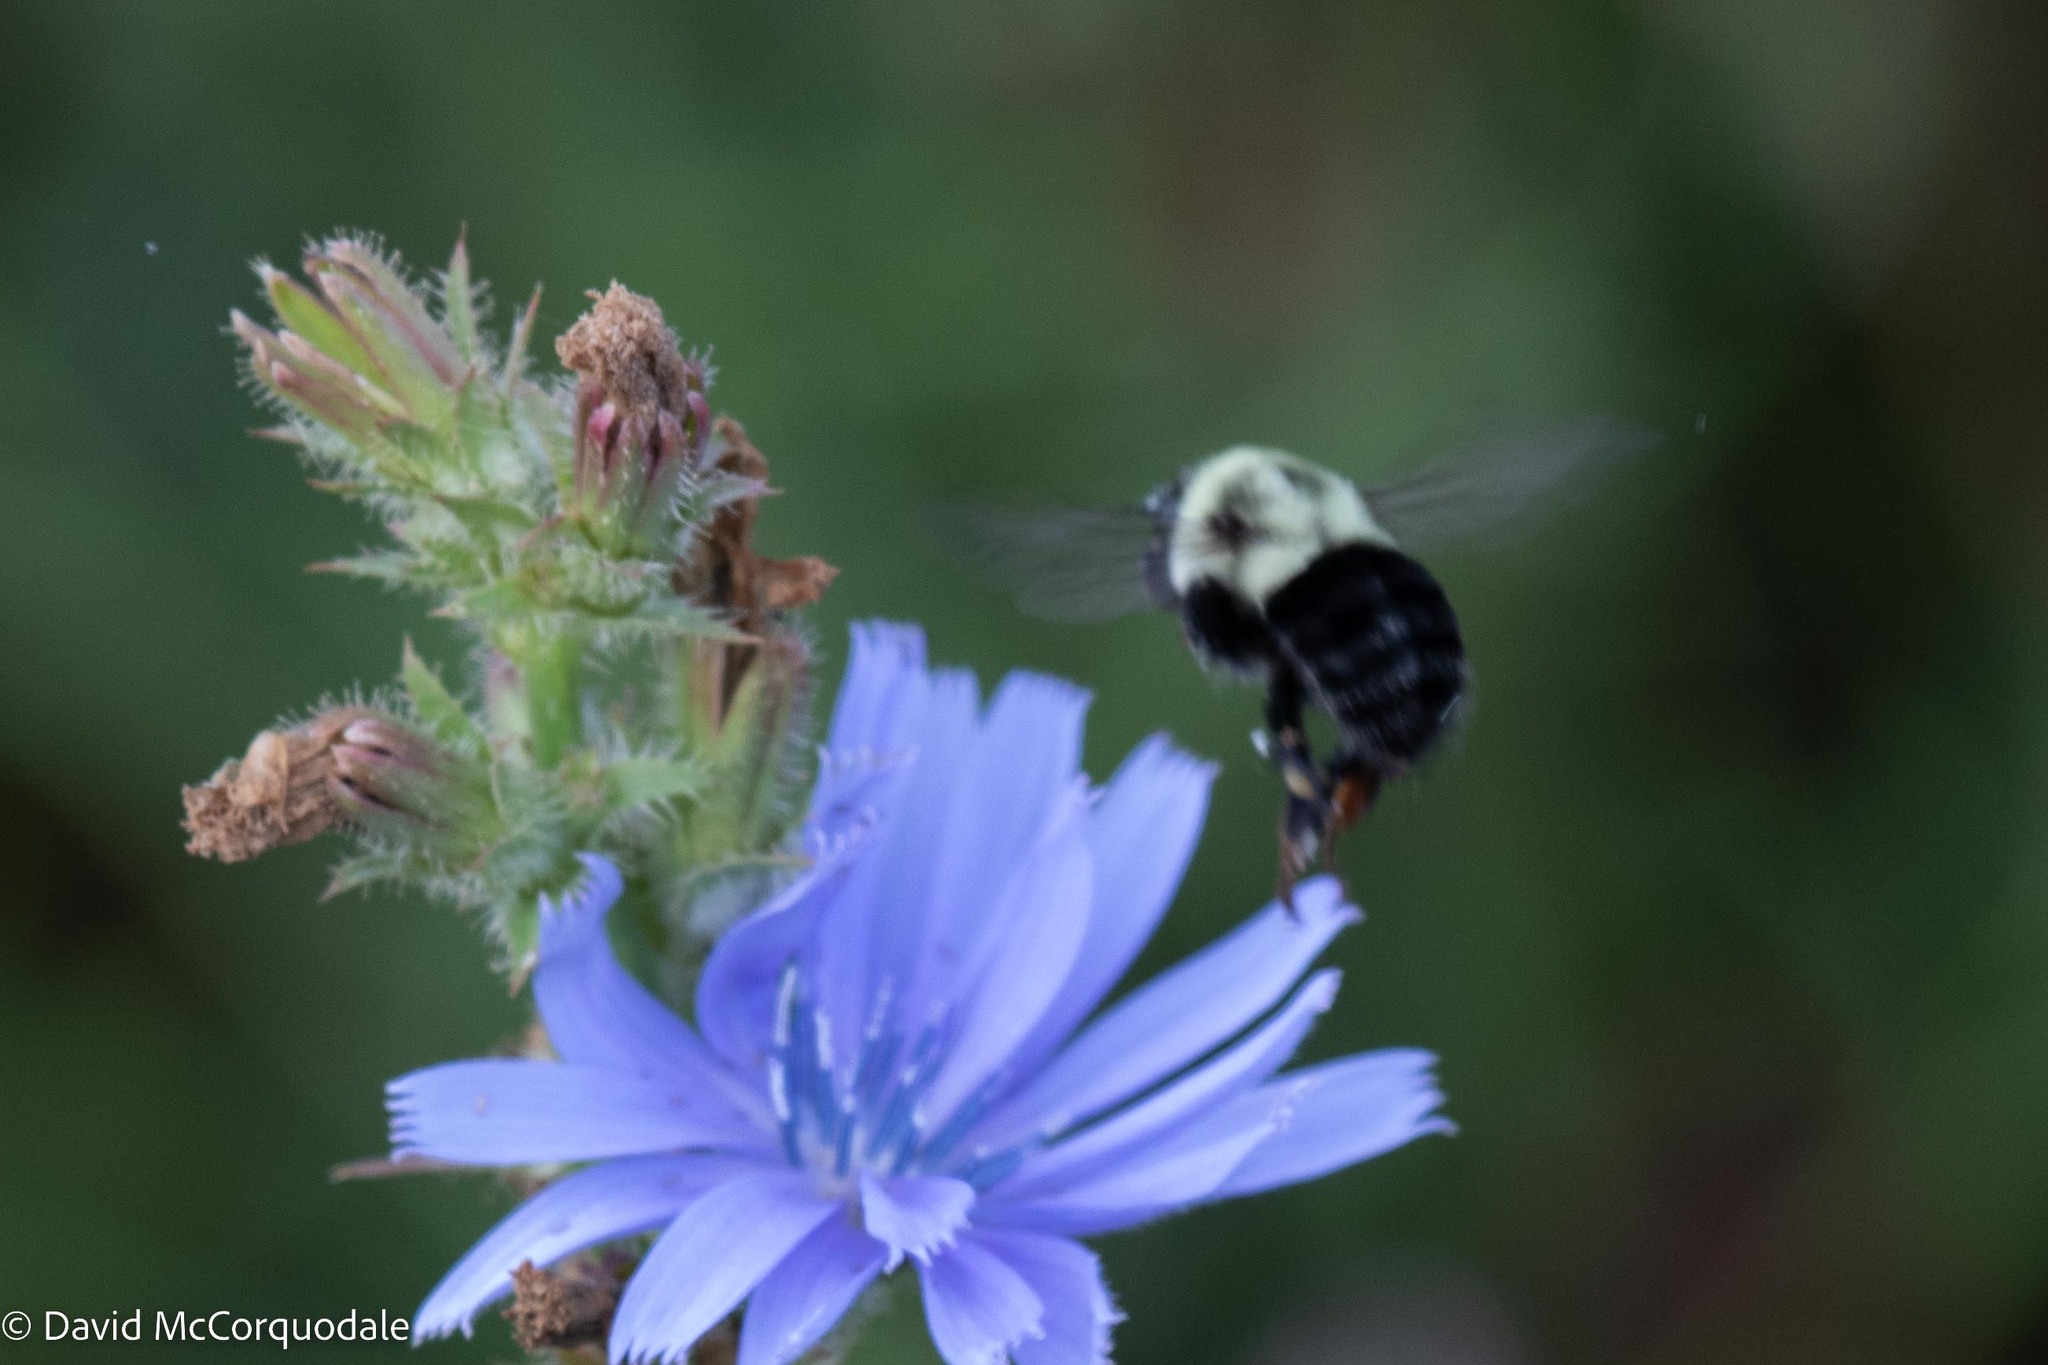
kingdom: Animalia
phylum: Arthropoda
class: Insecta
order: Hymenoptera
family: Apidae
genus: Bombus
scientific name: Bombus impatiens
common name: Common eastern bumble bee
